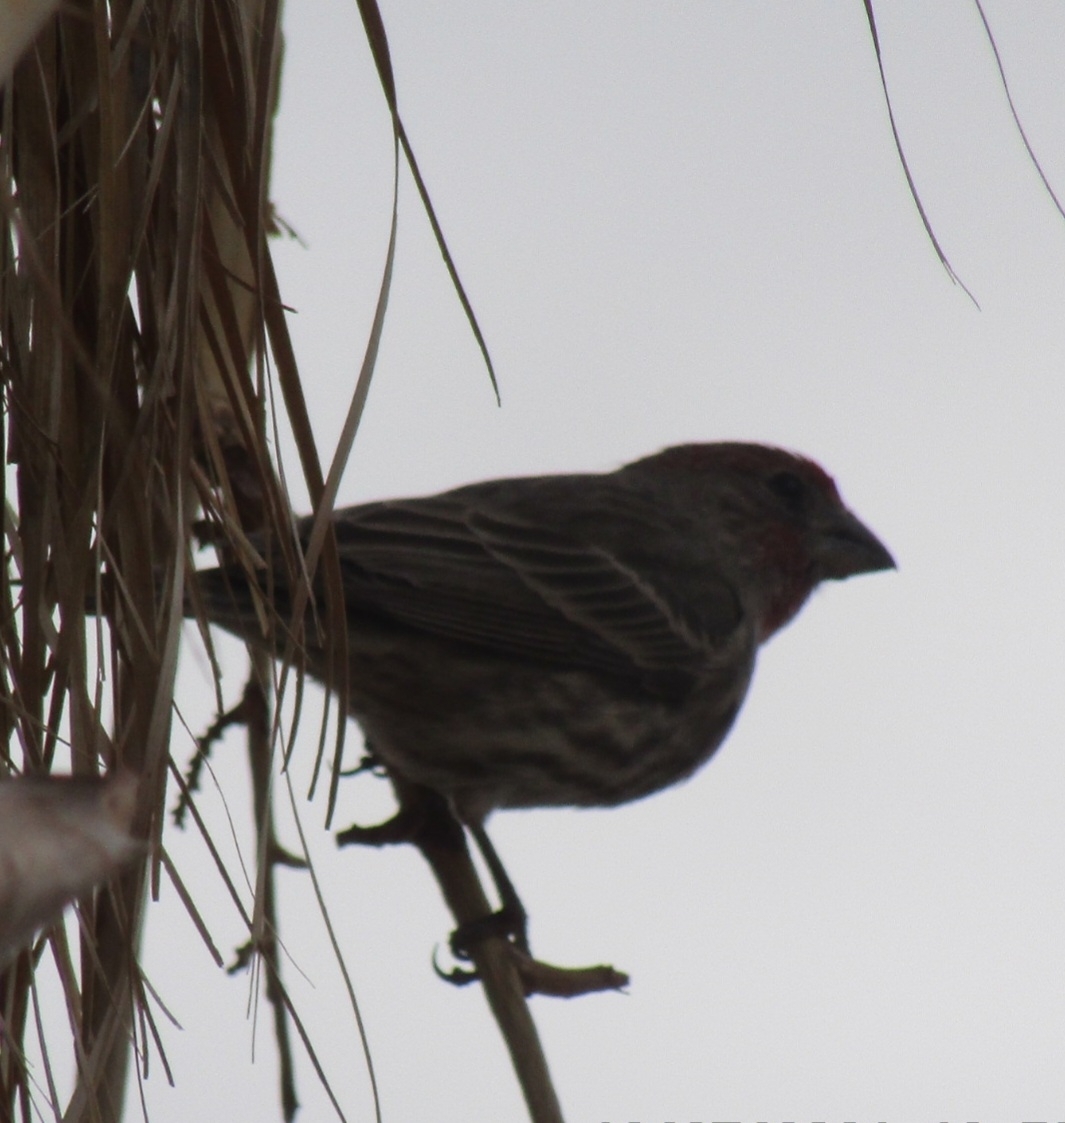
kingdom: Animalia
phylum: Chordata
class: Aves
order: Passeriformes
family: Fringillidae
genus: Haemorhous
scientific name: Haemorhous mexicanus
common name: House finch
